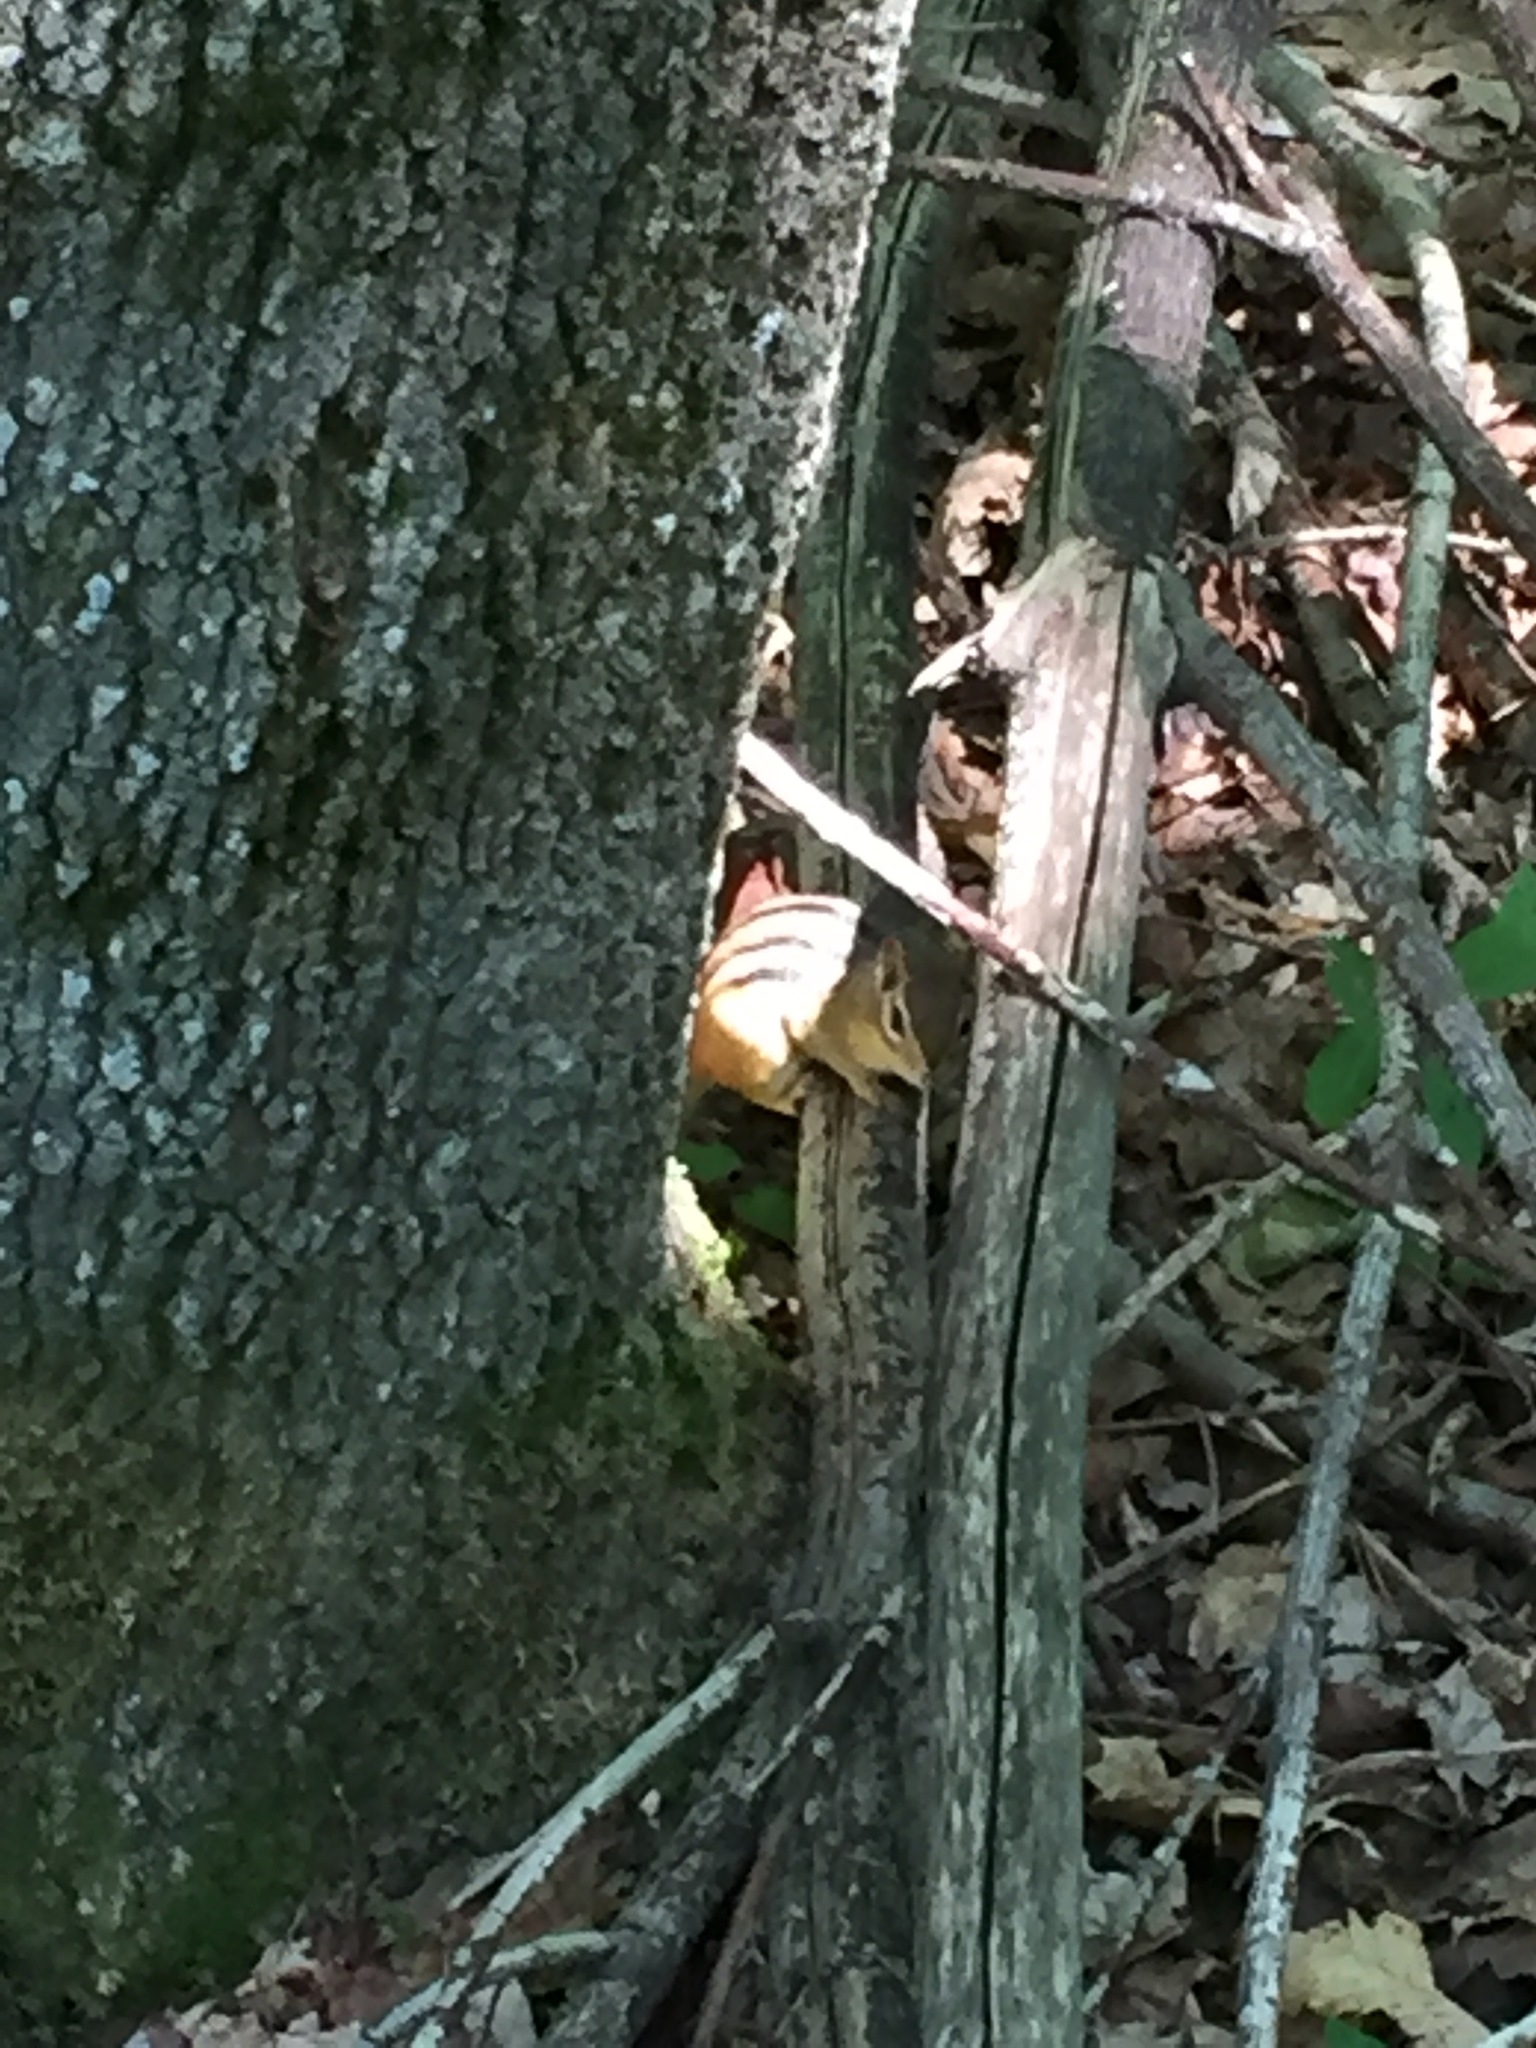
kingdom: Animalia
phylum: Chordata
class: Mammalia
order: Rodentia
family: Sciuridae
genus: Tamias
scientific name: Tamias striatus
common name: Eastern chipmunk
